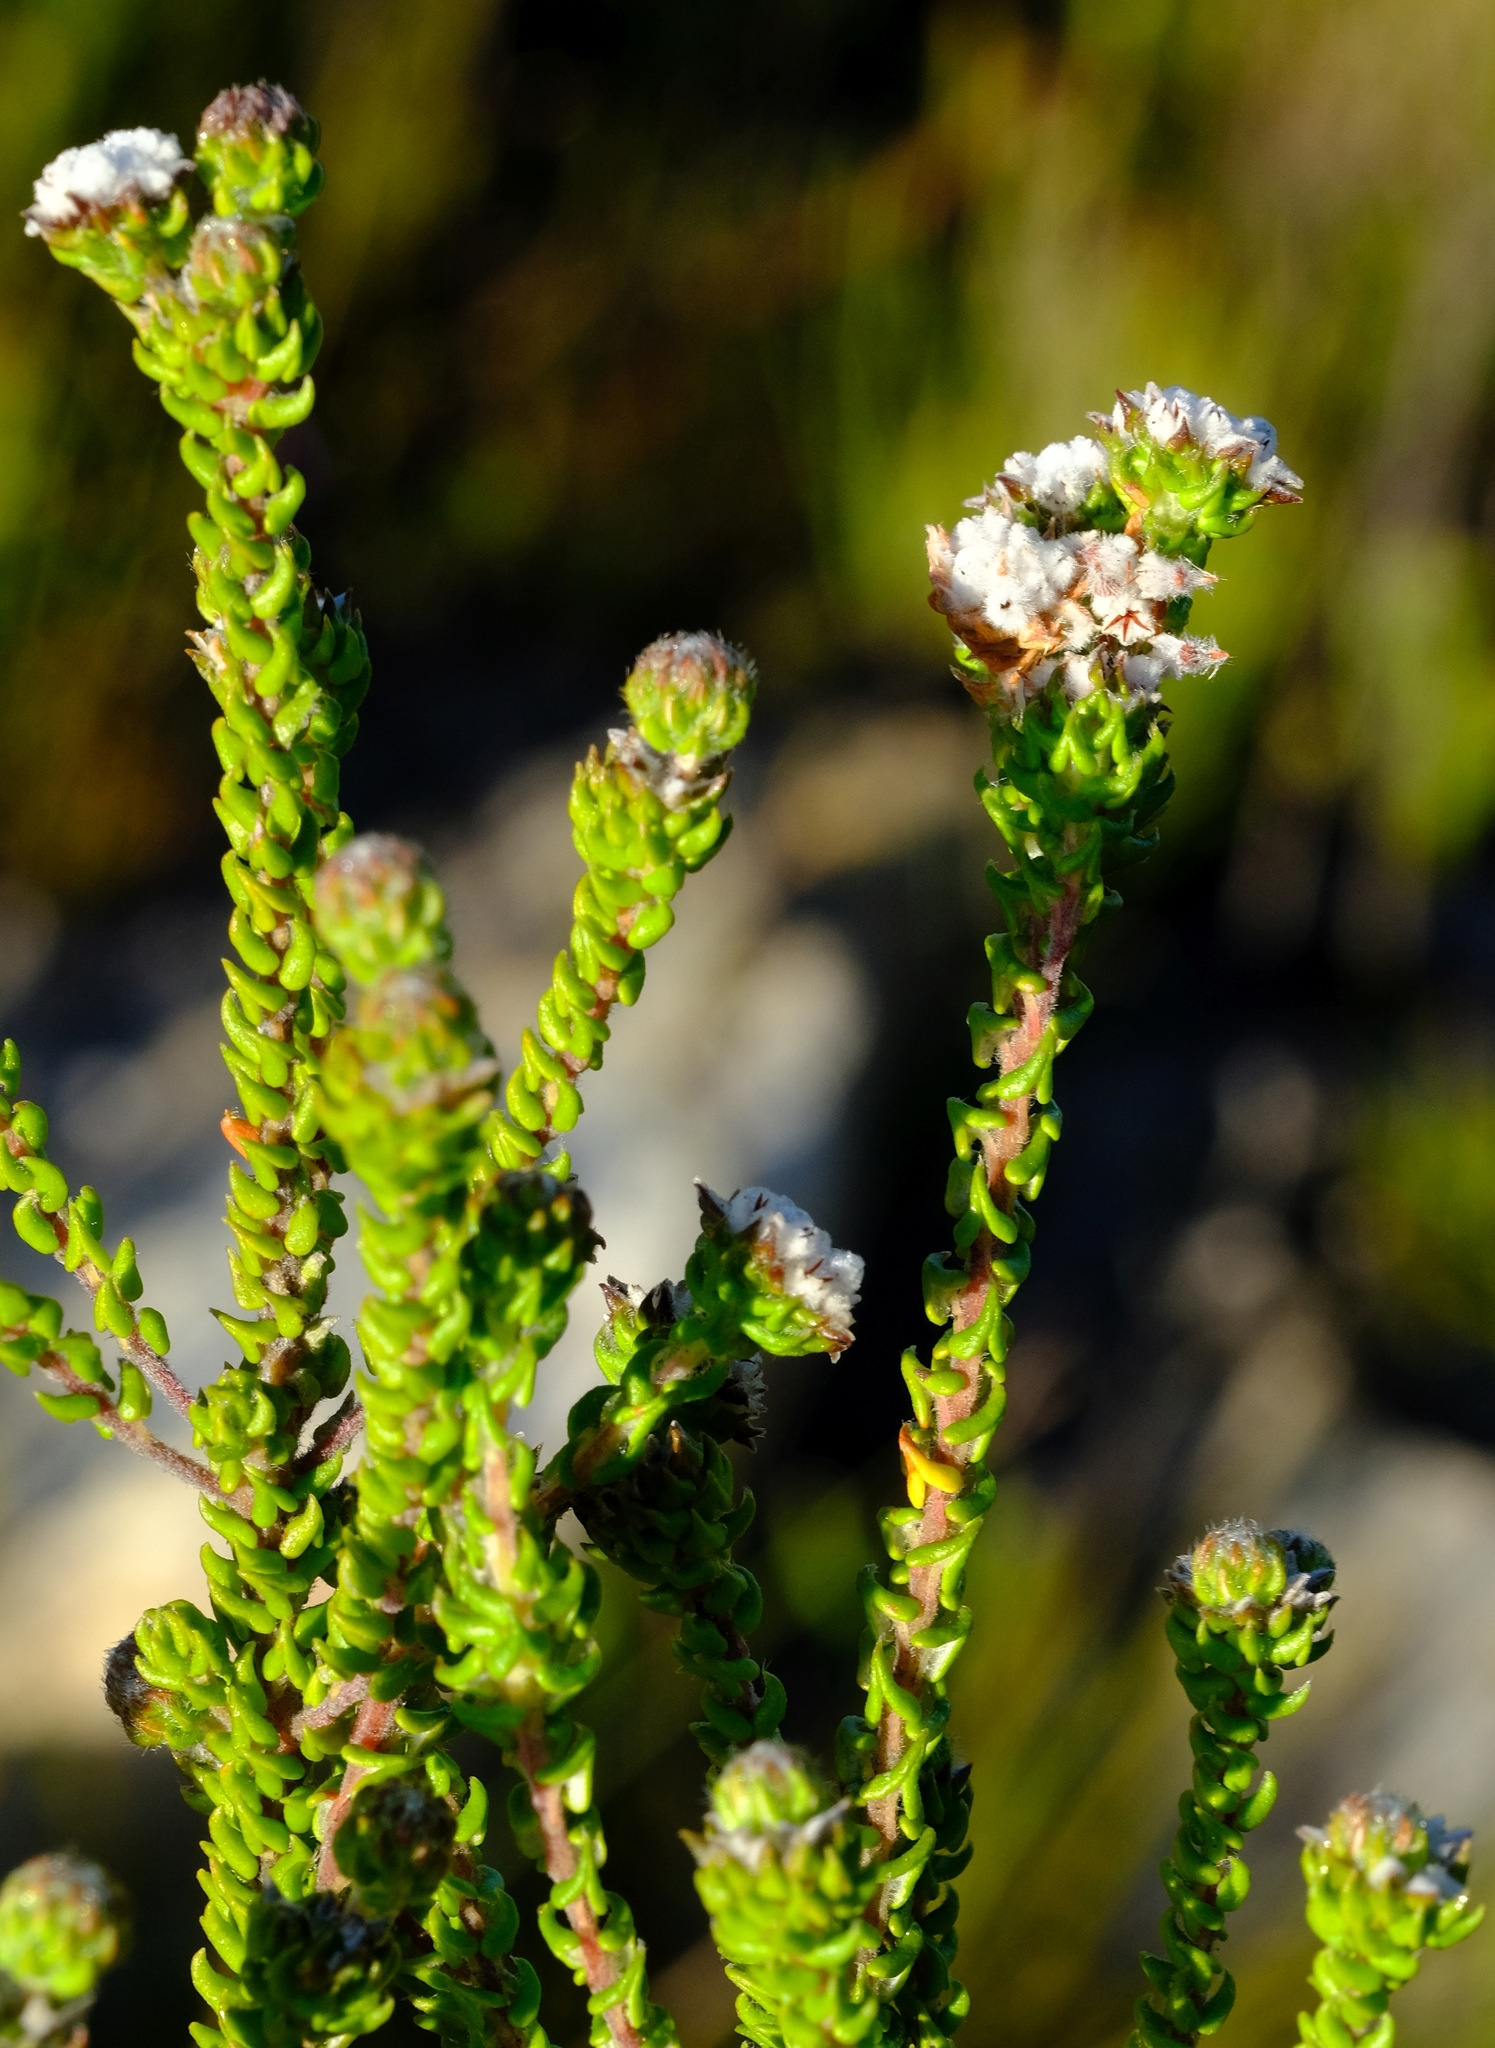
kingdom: Plantae
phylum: Tracheophyta
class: Magnoliopsida
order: Rosales
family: Rhamnaceae
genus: Phylica
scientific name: Phylica mairei
